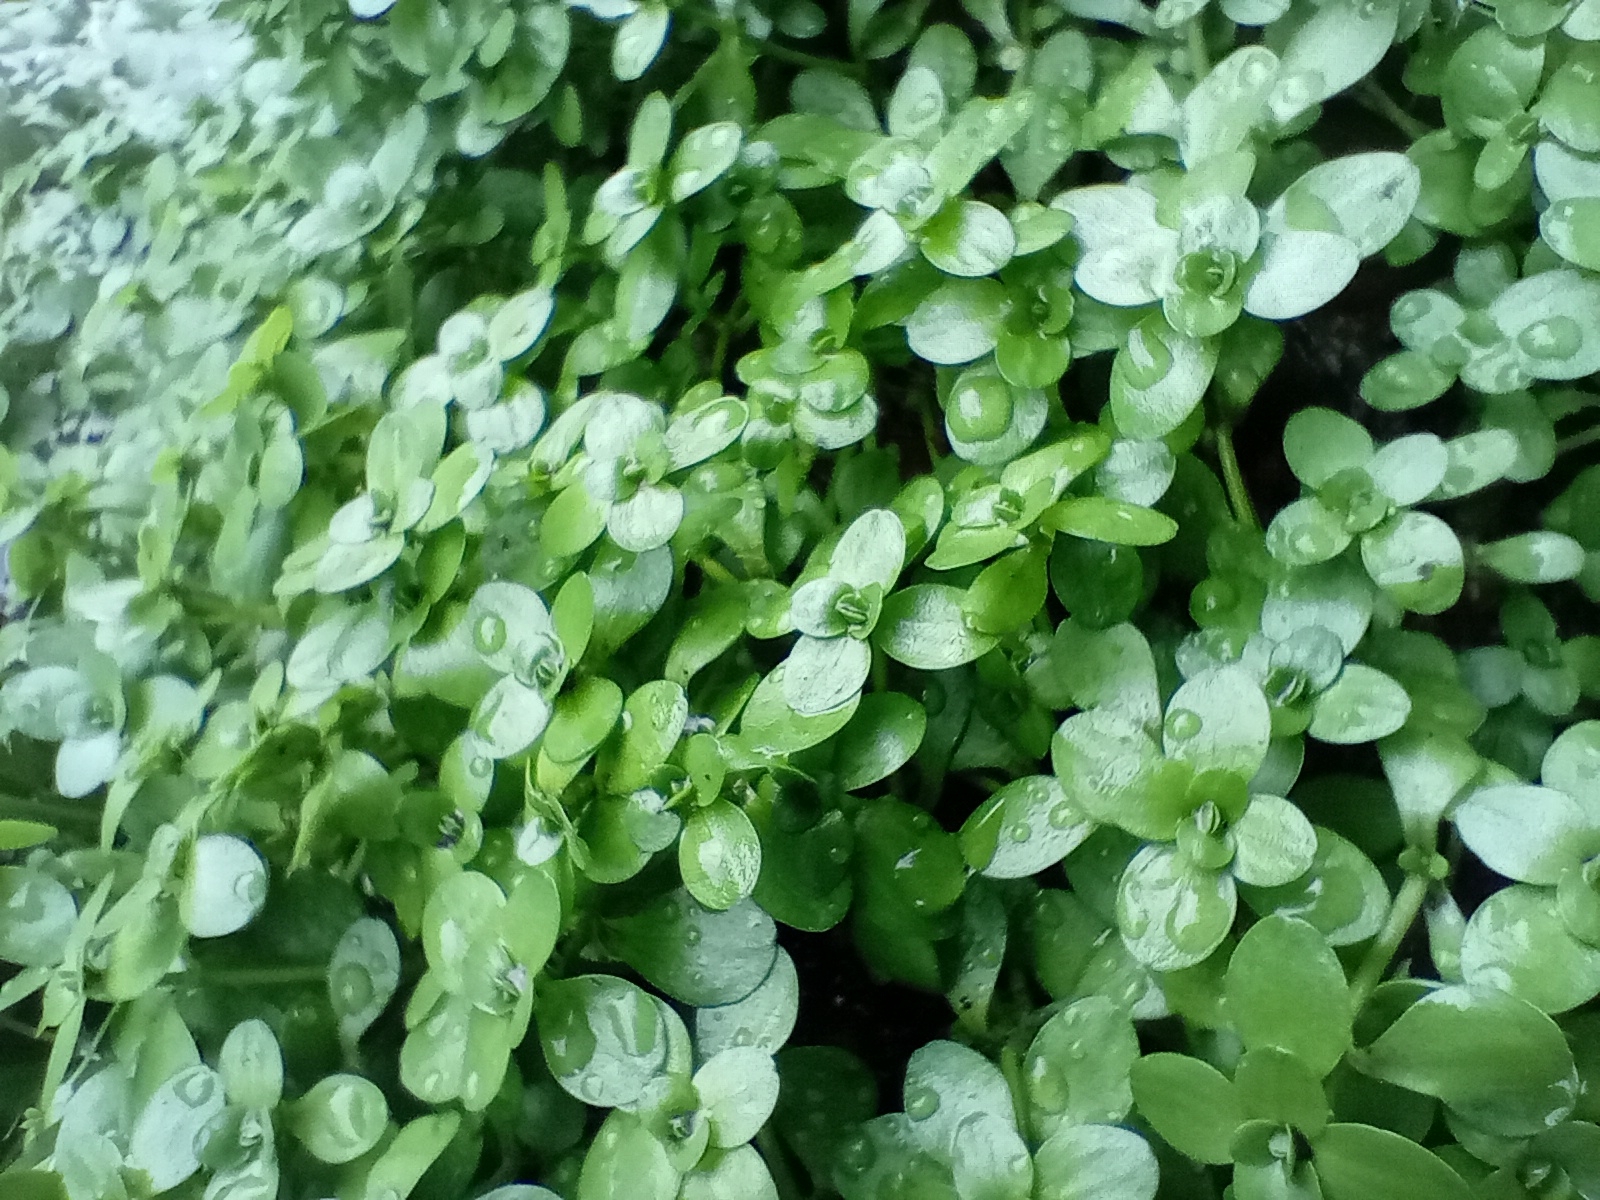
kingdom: Plantae
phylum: Tracheophyta
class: Magnoliopsida
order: Lamiales
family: Plantaginaceae
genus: Callitriche
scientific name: Callitriche stagnalis
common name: Common water-starwort
